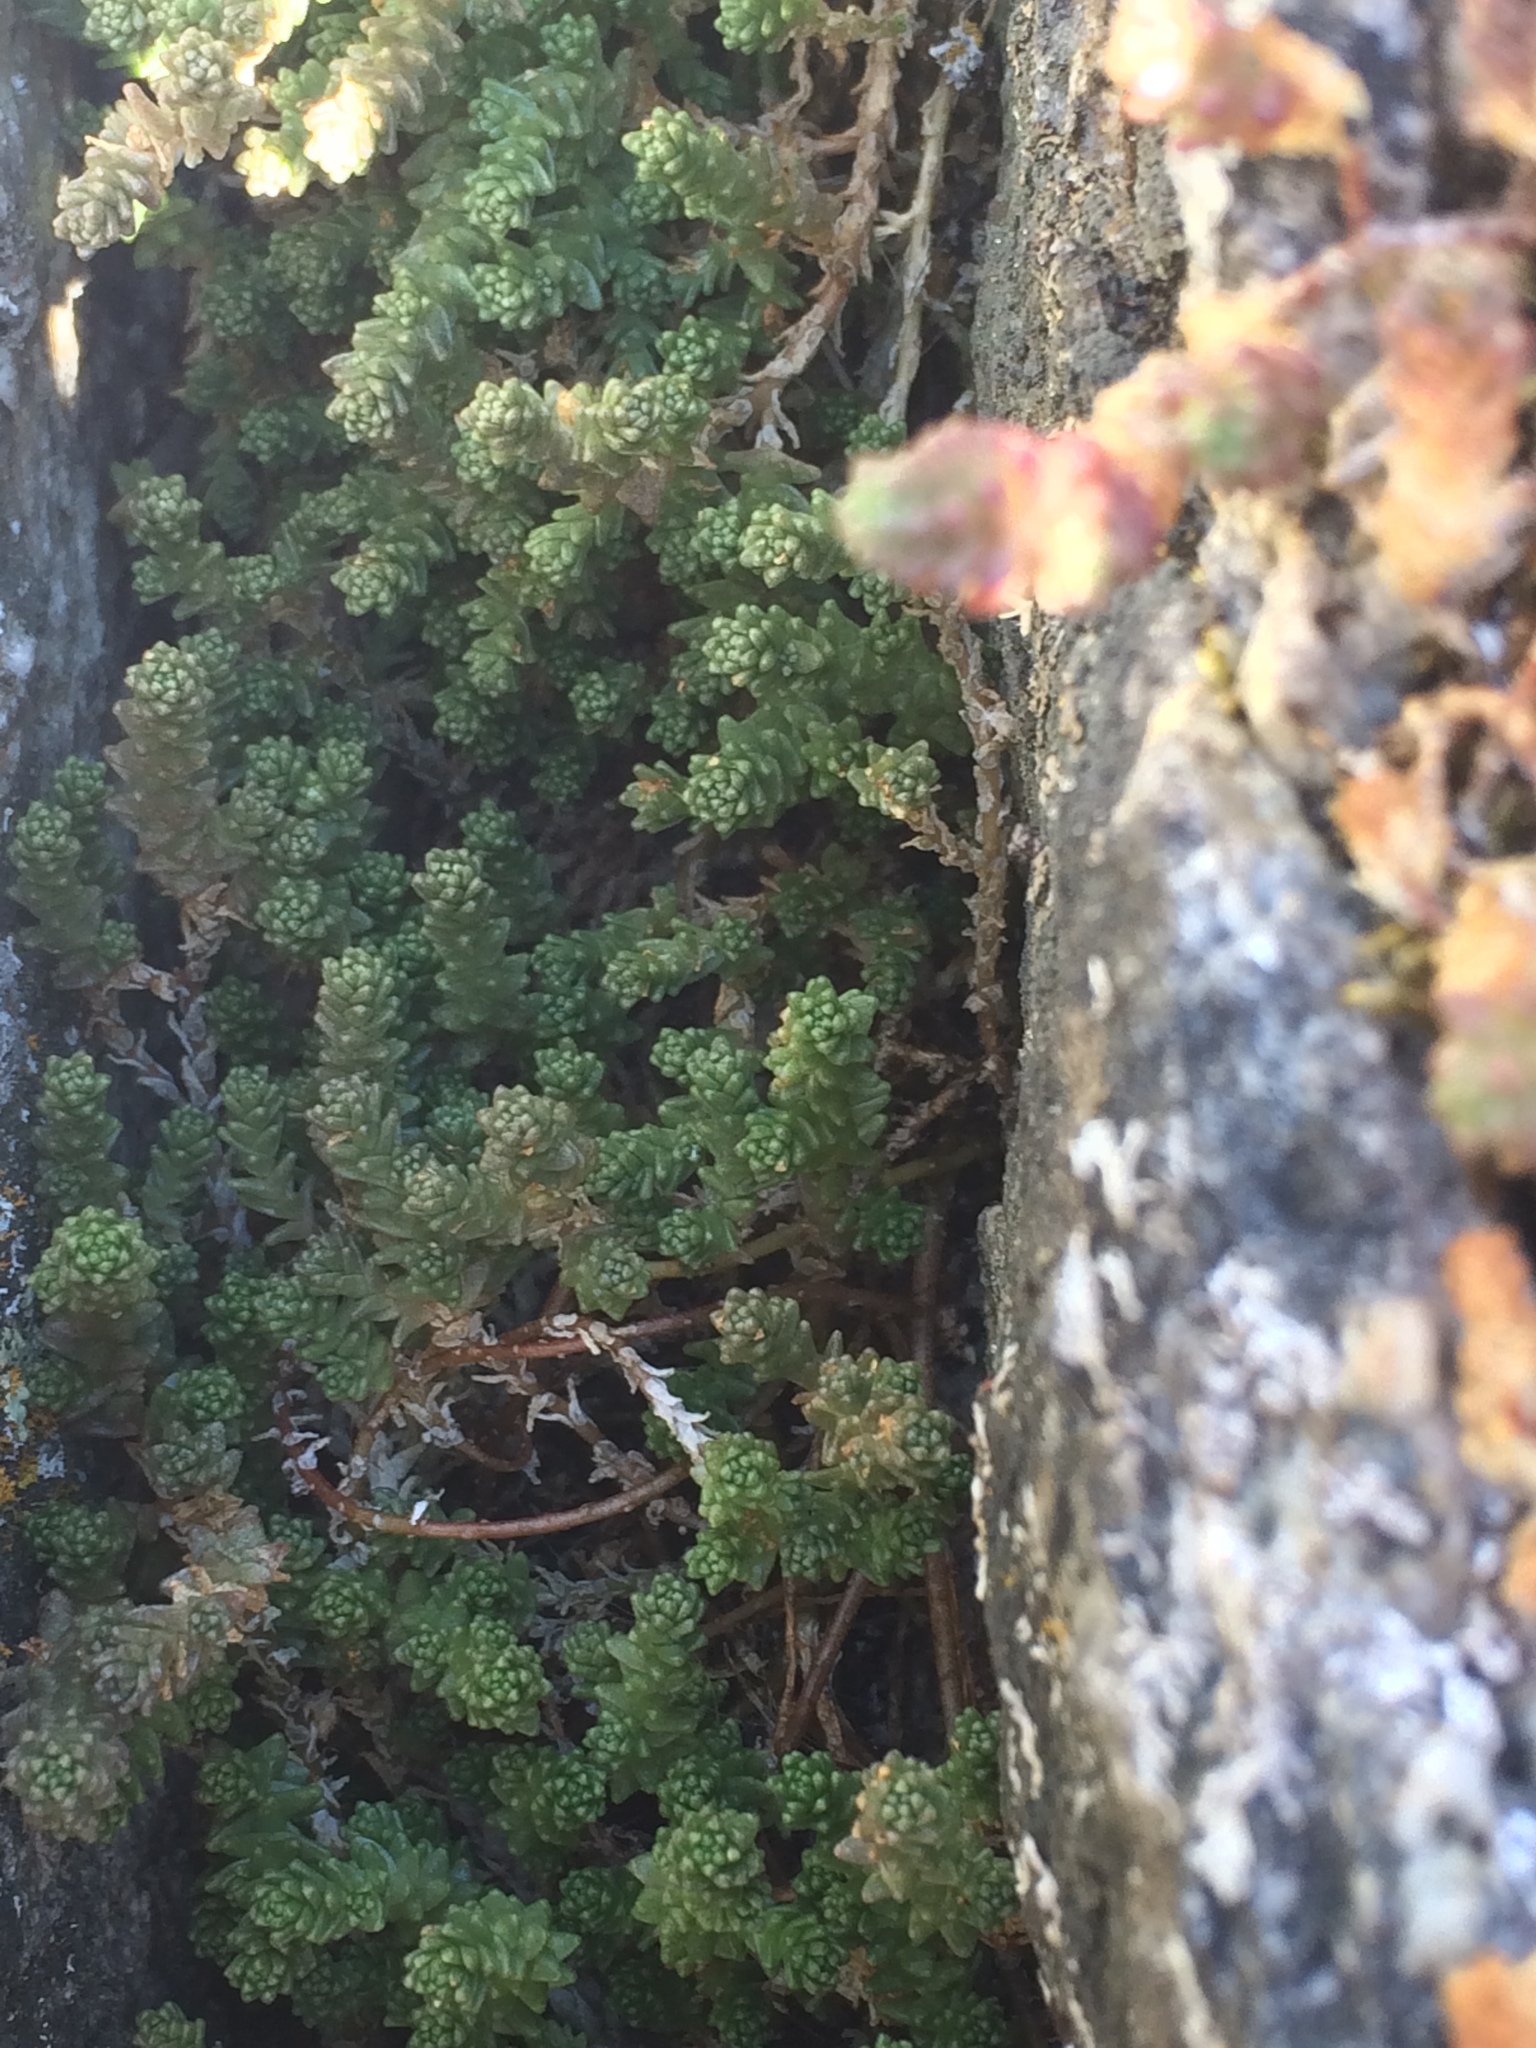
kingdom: Plantae
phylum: Tracheophyta
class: Magnoliopsida
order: Saxifragales
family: Crassulaceae
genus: Sedum
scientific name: Sedum acre
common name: Biting stonecrop
